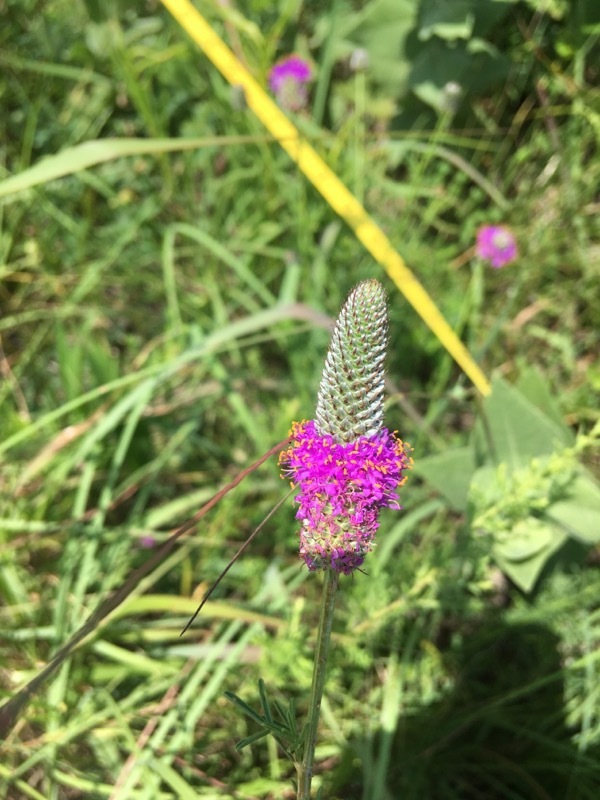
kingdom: Plantae
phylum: Tracheophyta
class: Magnoliopsida
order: Fabales
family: Fabaceae
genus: Dalea
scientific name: Dalea purpurea
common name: Purple prairie-clover
